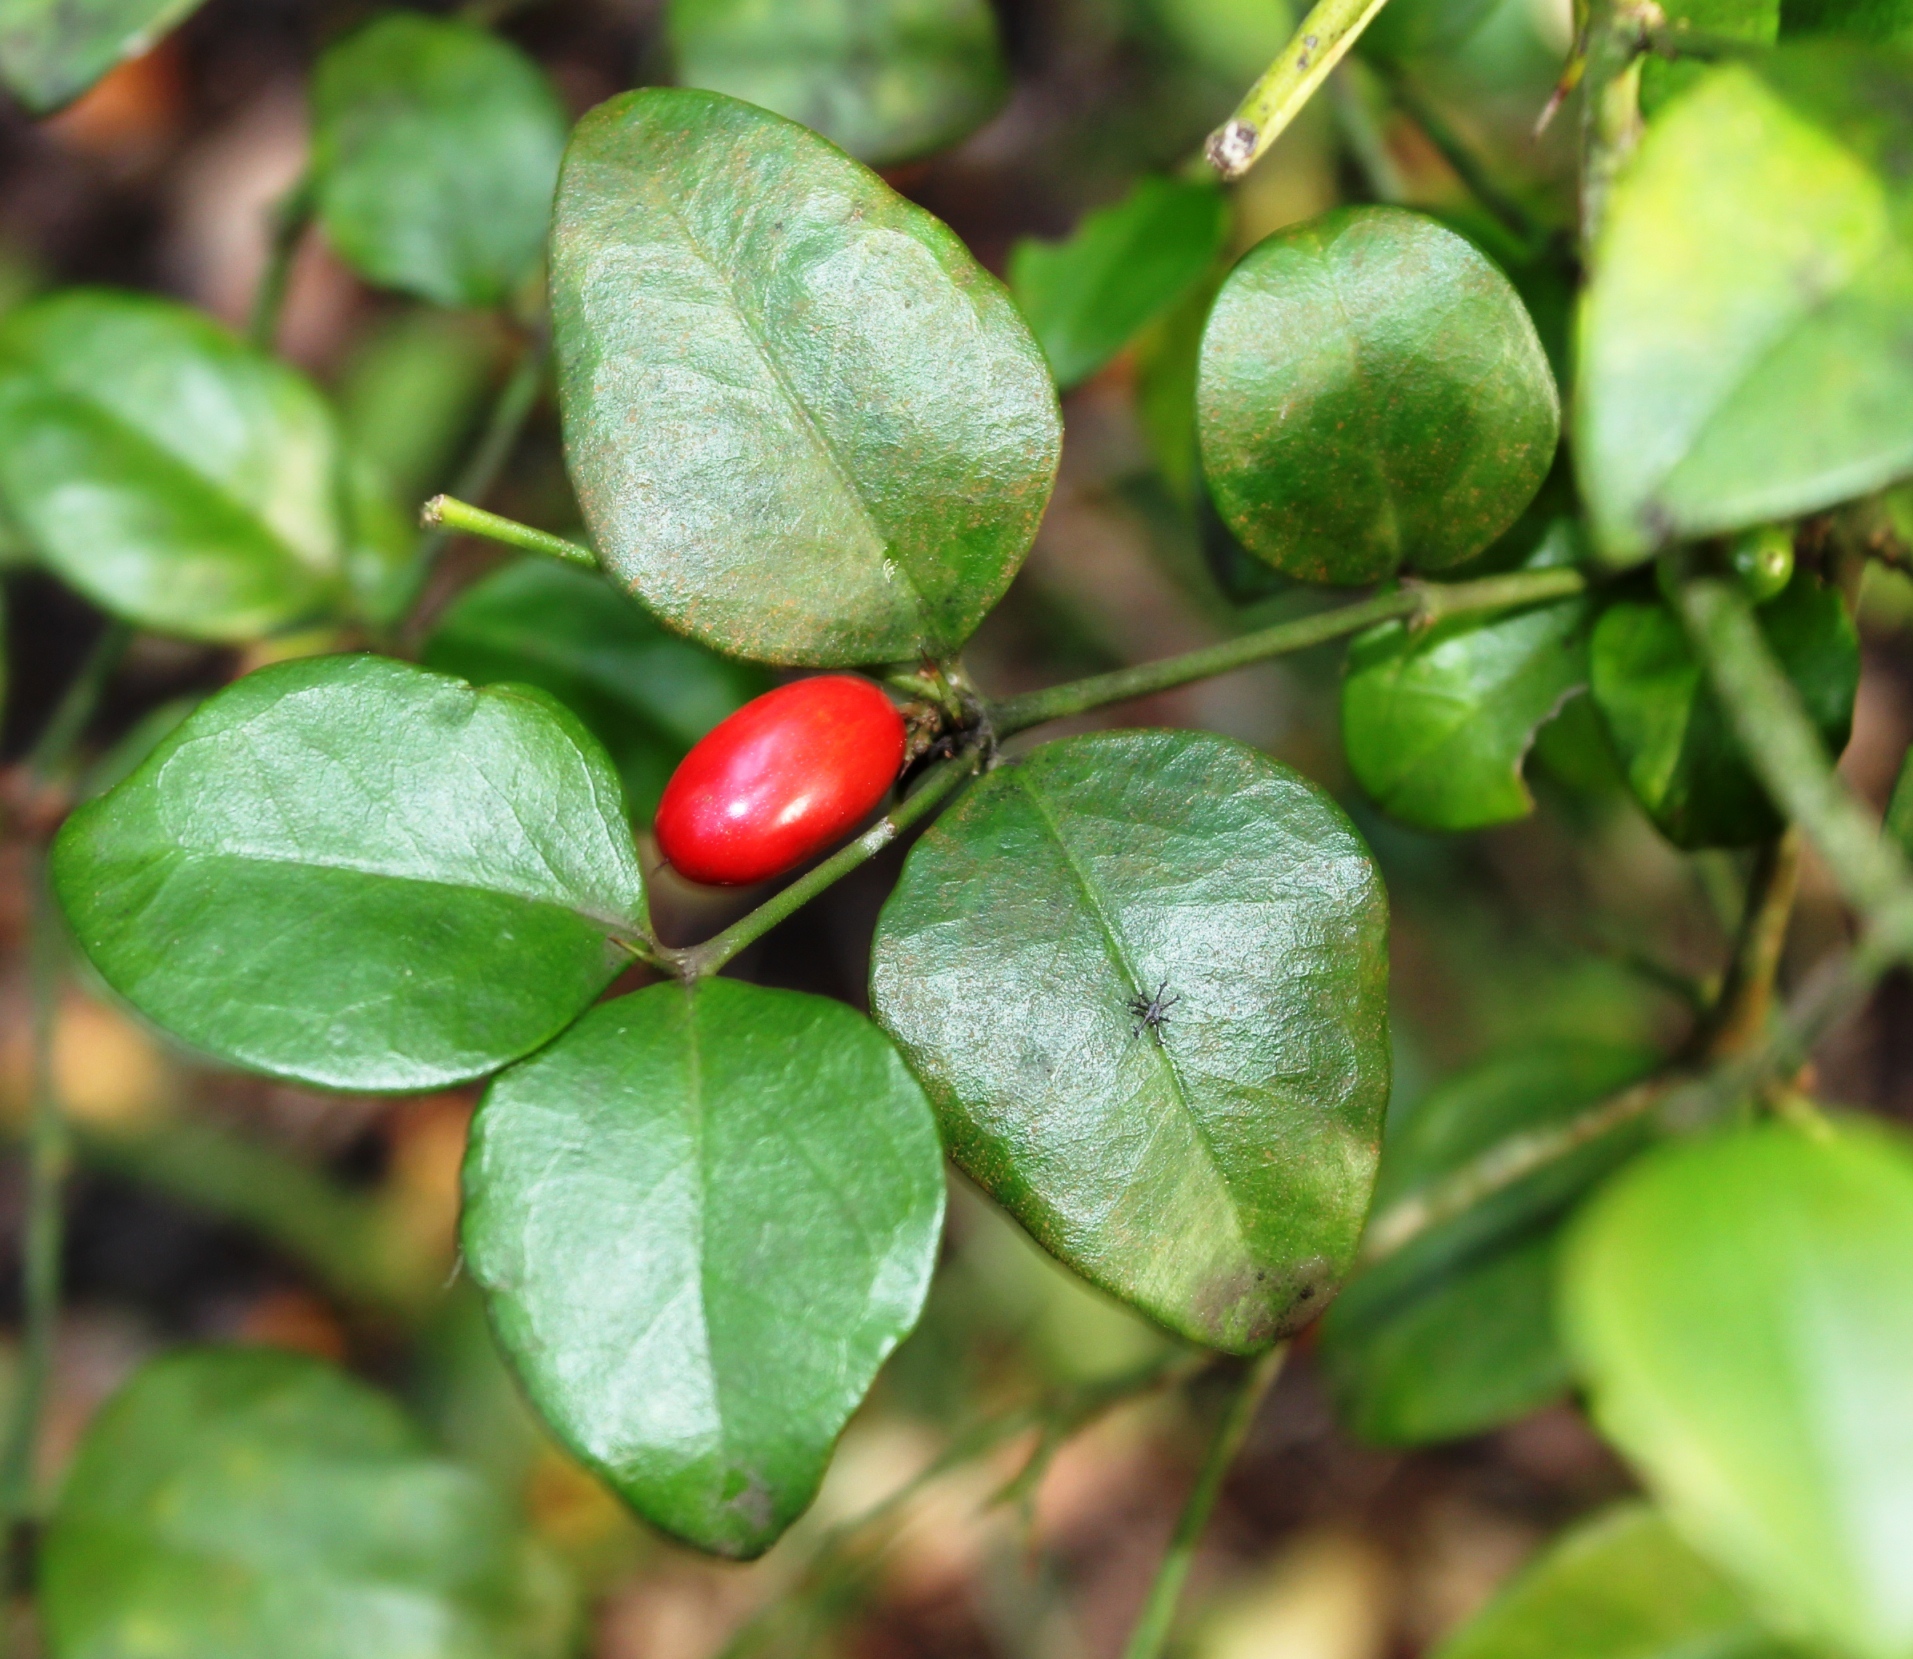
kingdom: Plantae
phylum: Tracheophyta
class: Magnoliopsida
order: Gentianales
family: Apocynaceae
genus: Carissa
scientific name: Carissa bispinosa
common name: Forest num-num
